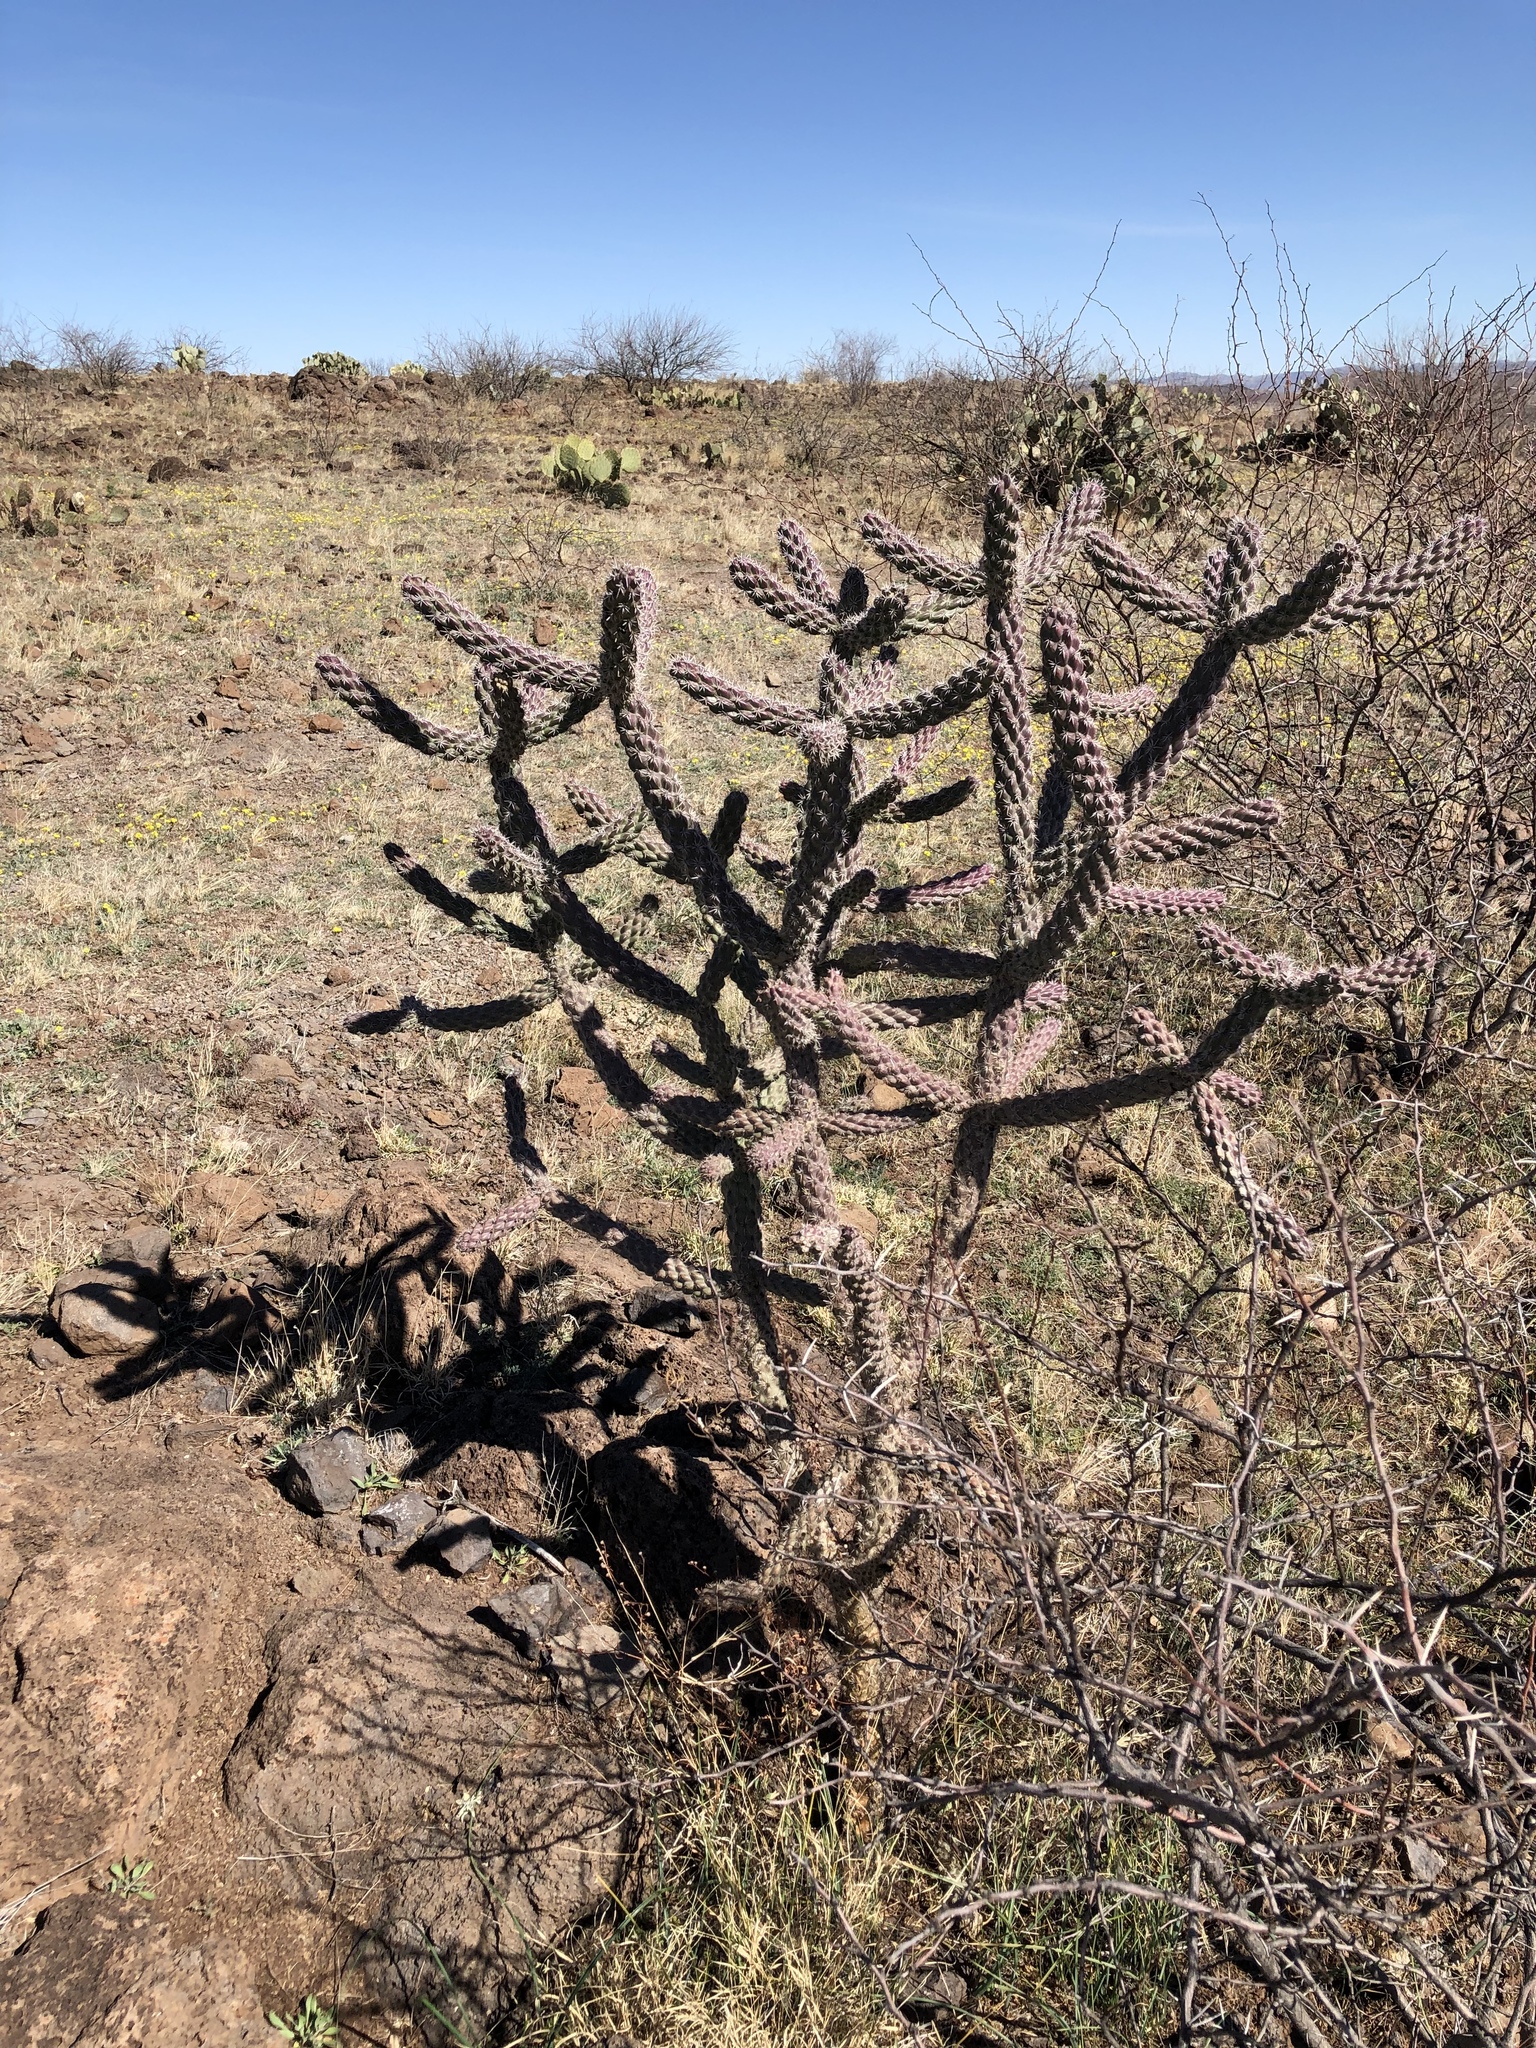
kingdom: Plantae
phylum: Tracheophyta
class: Magnoliopsida
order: Caryophyllales
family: Cactaceae
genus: Cylindropuntia
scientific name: Cylindropuntia imbricata
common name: Candelabrum cactus
